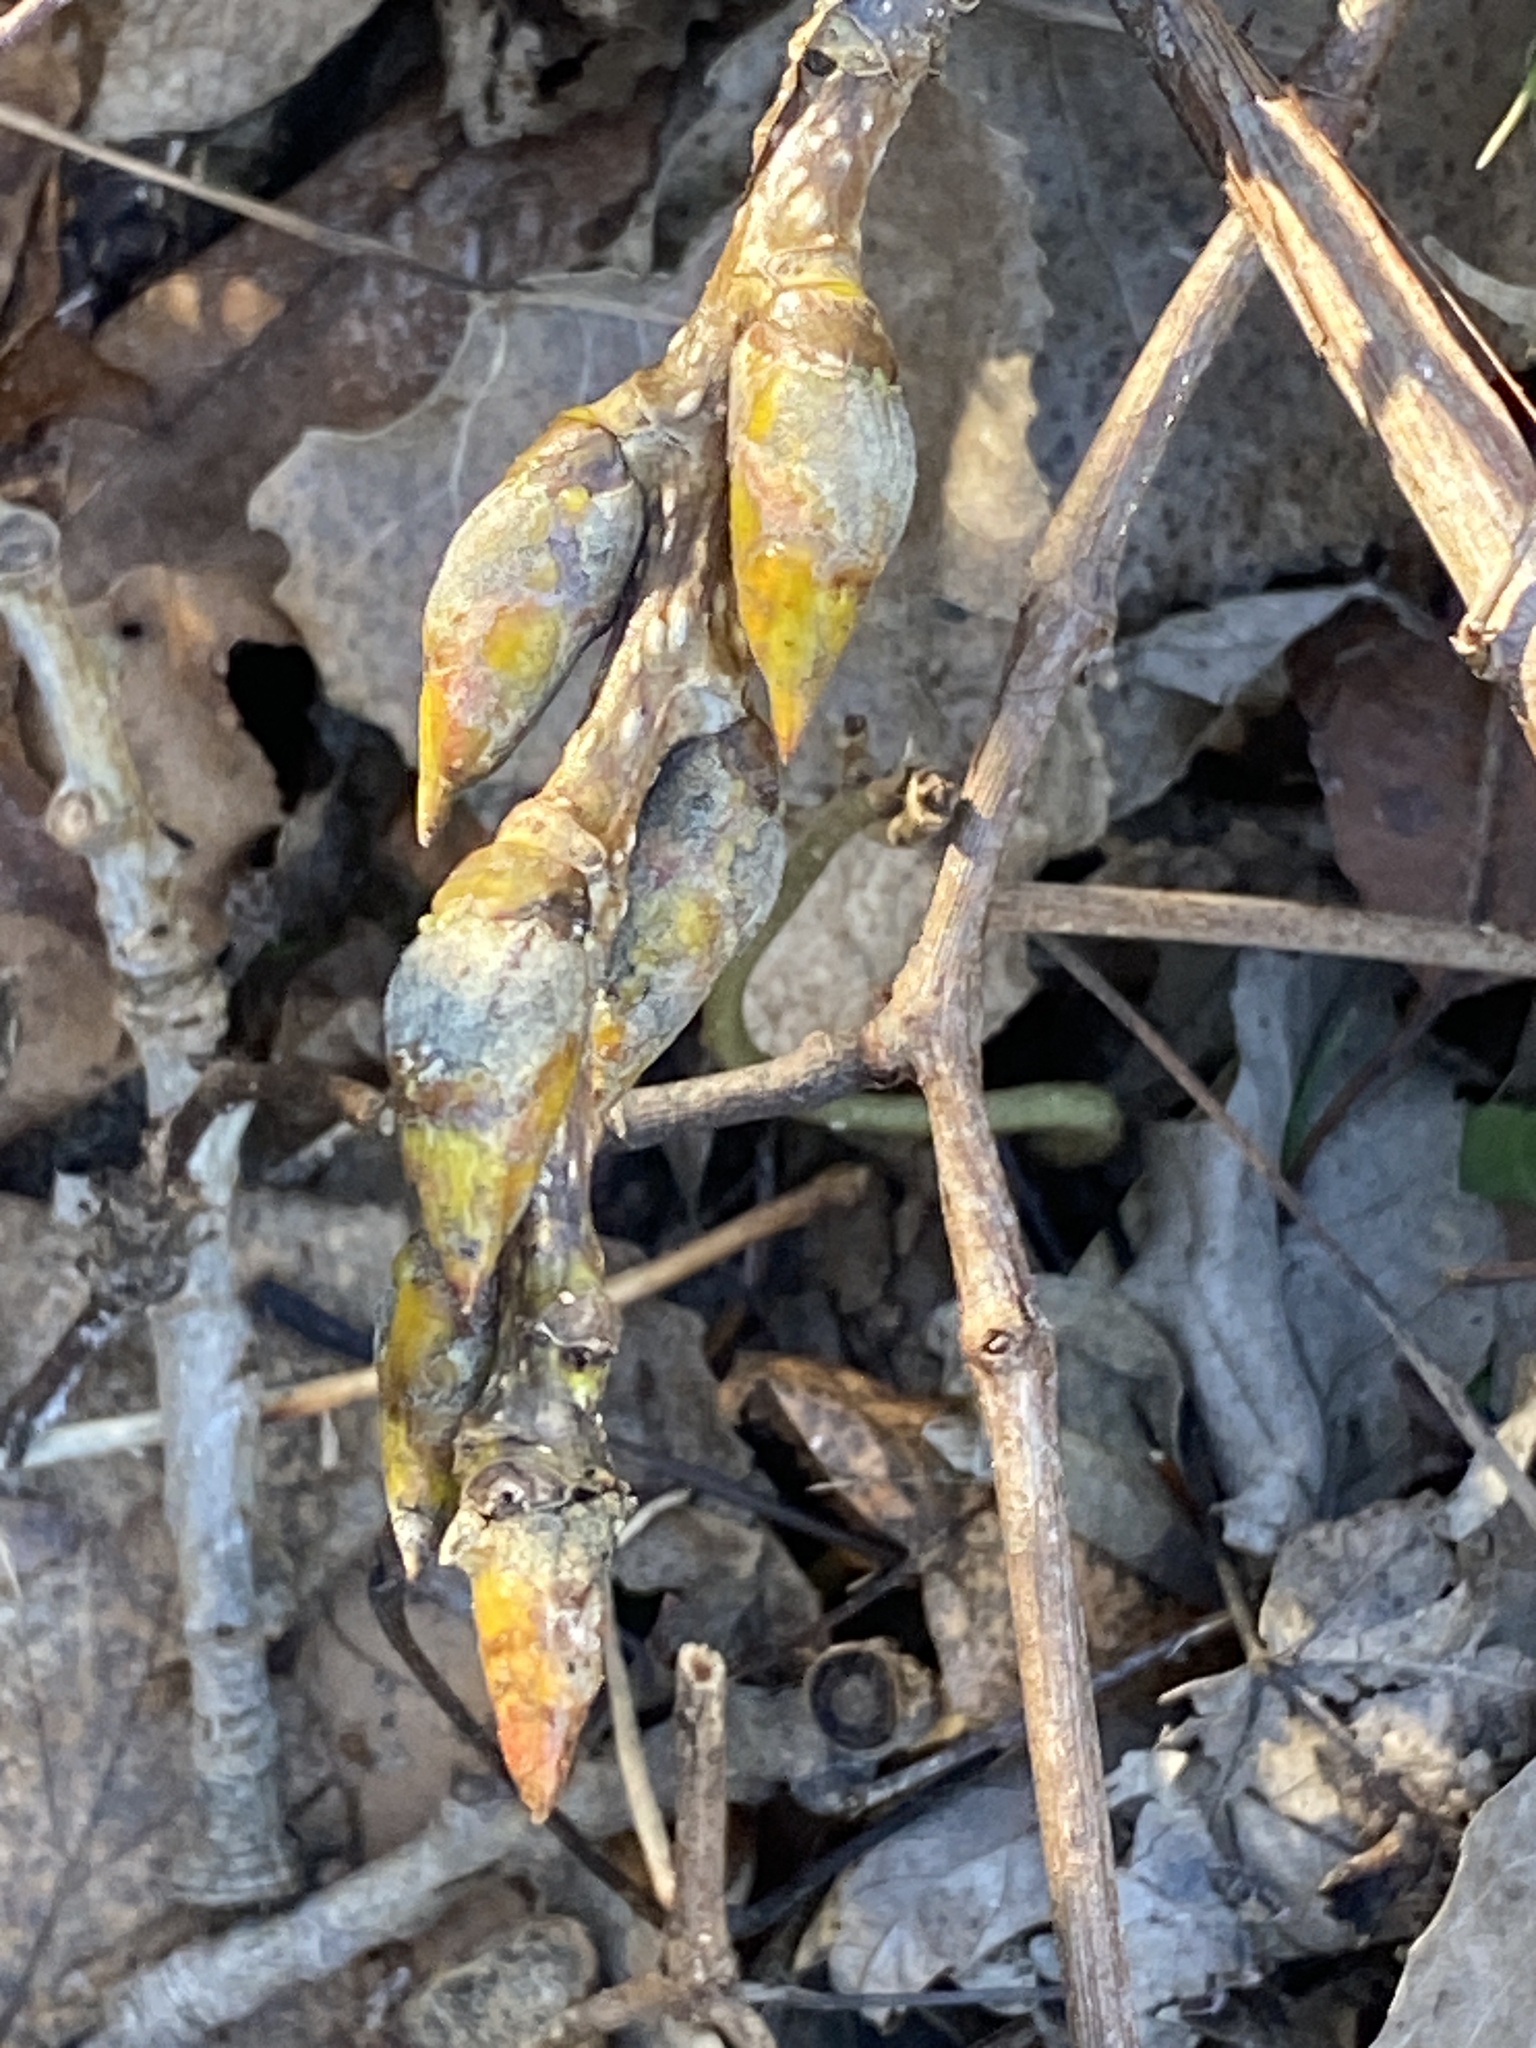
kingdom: Plantae
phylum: Tracheophyta
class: Magnoliopsida
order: Malpighiales
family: Salicaceae
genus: Populus
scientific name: Populus deltoides
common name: Eastern cottonwood
